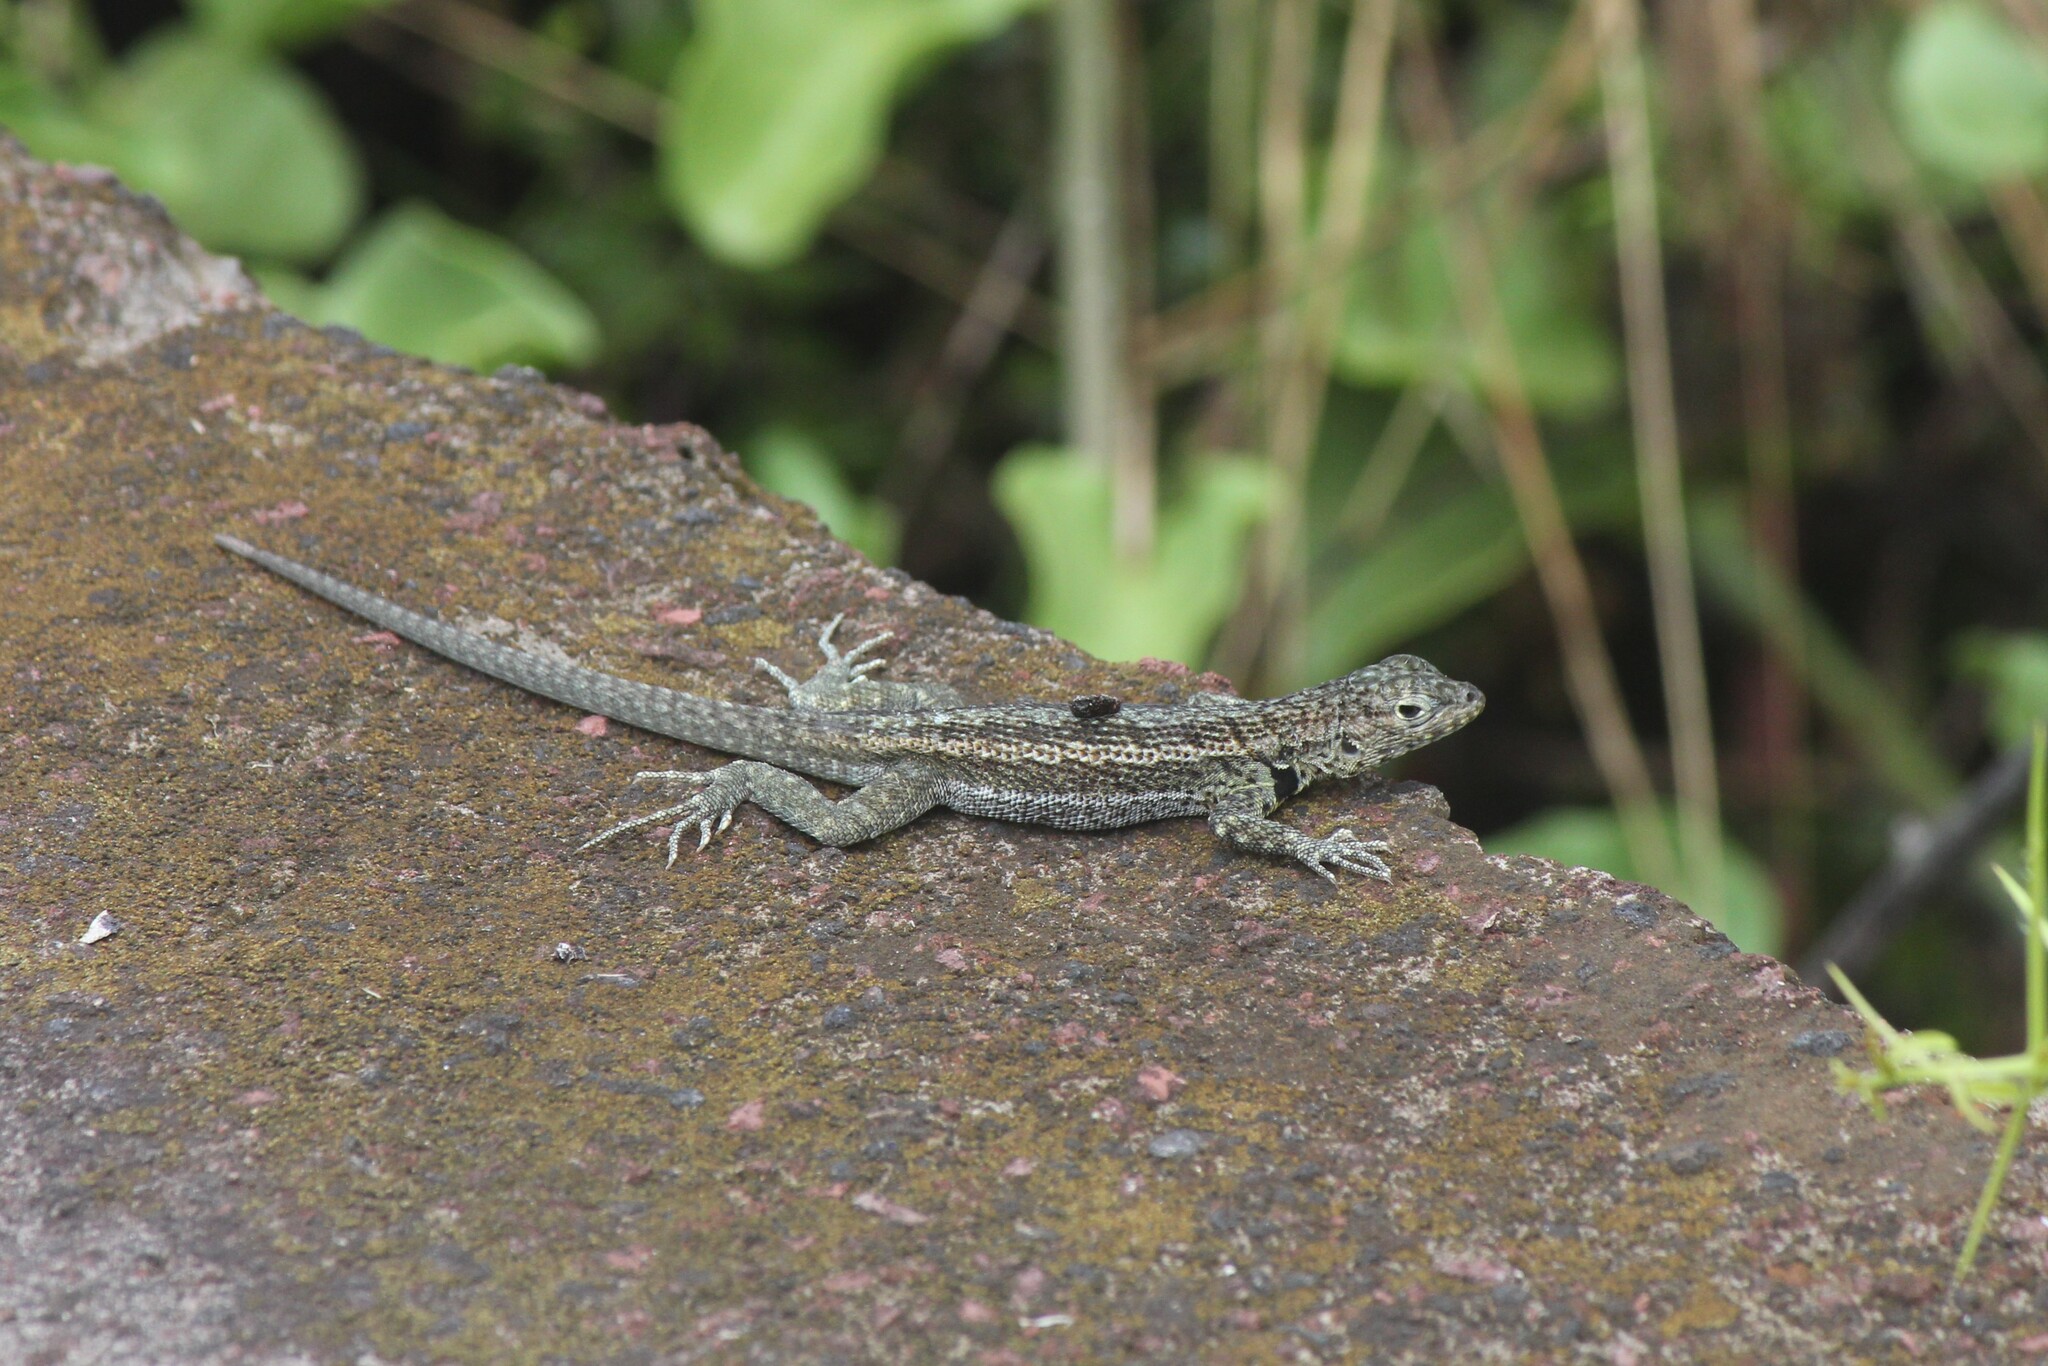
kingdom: Animalia
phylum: Chordata
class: Squamata
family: Tropiduridae
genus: Microlophus
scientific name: Microlophus indefatigabilis
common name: Galapagos lava lizard
